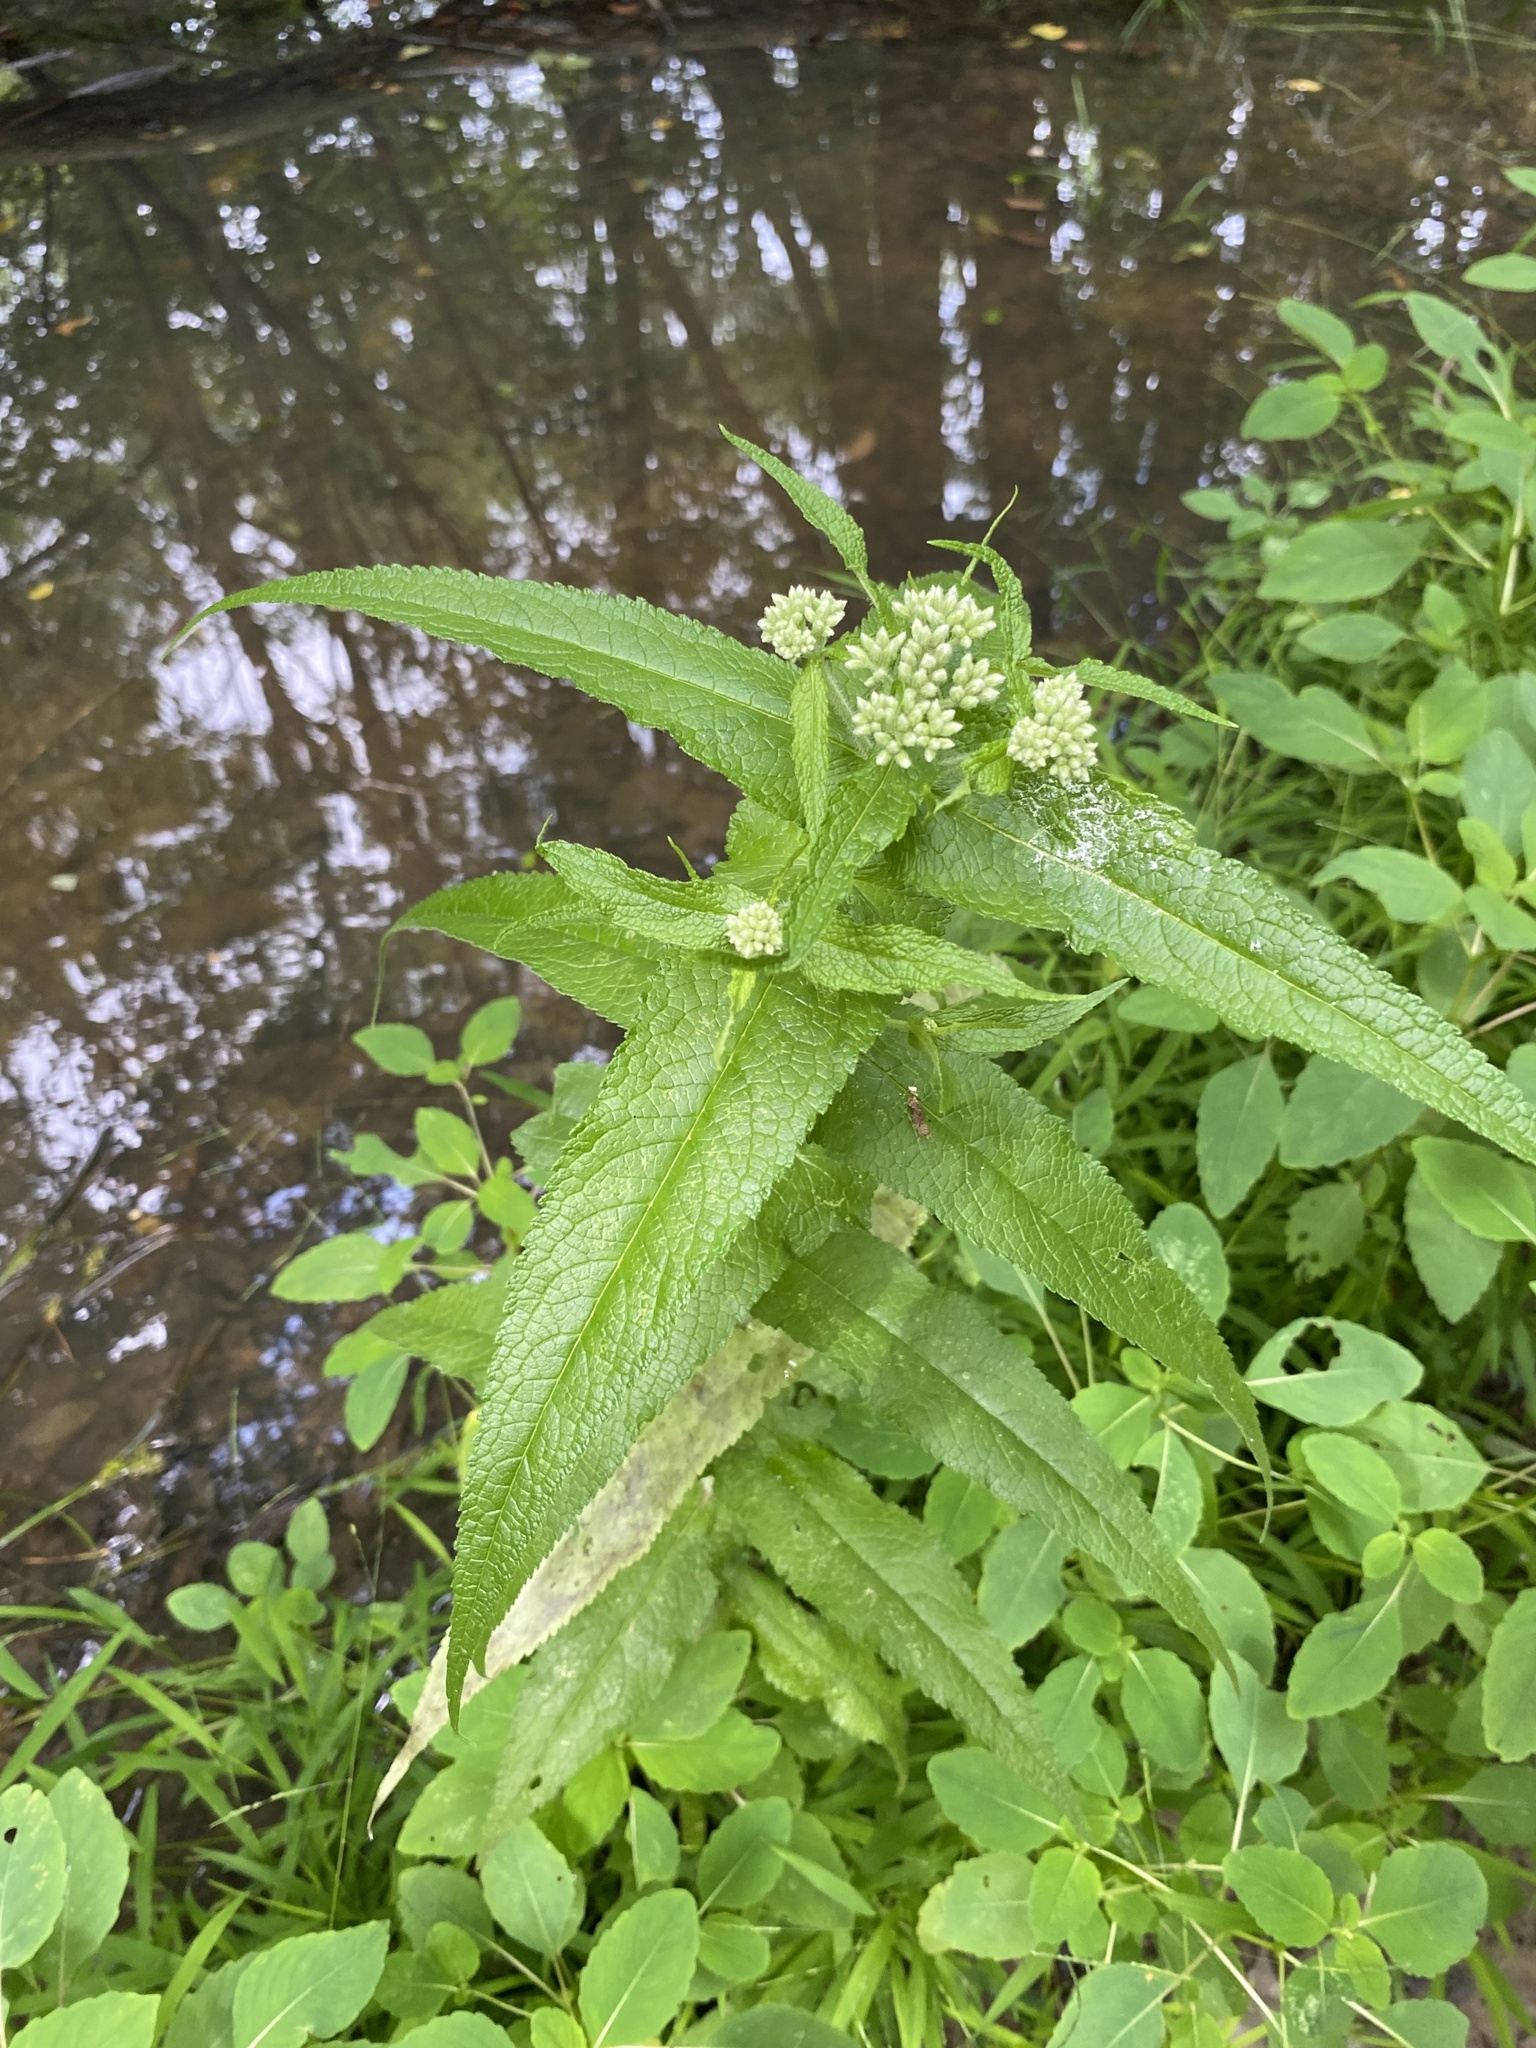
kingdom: Plantae
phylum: Tracheophyta
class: Magnoliopsida
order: Asterales
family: Asteraceae
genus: Eupatorium
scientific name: Eupatorium perfoliatum
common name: Boneset
